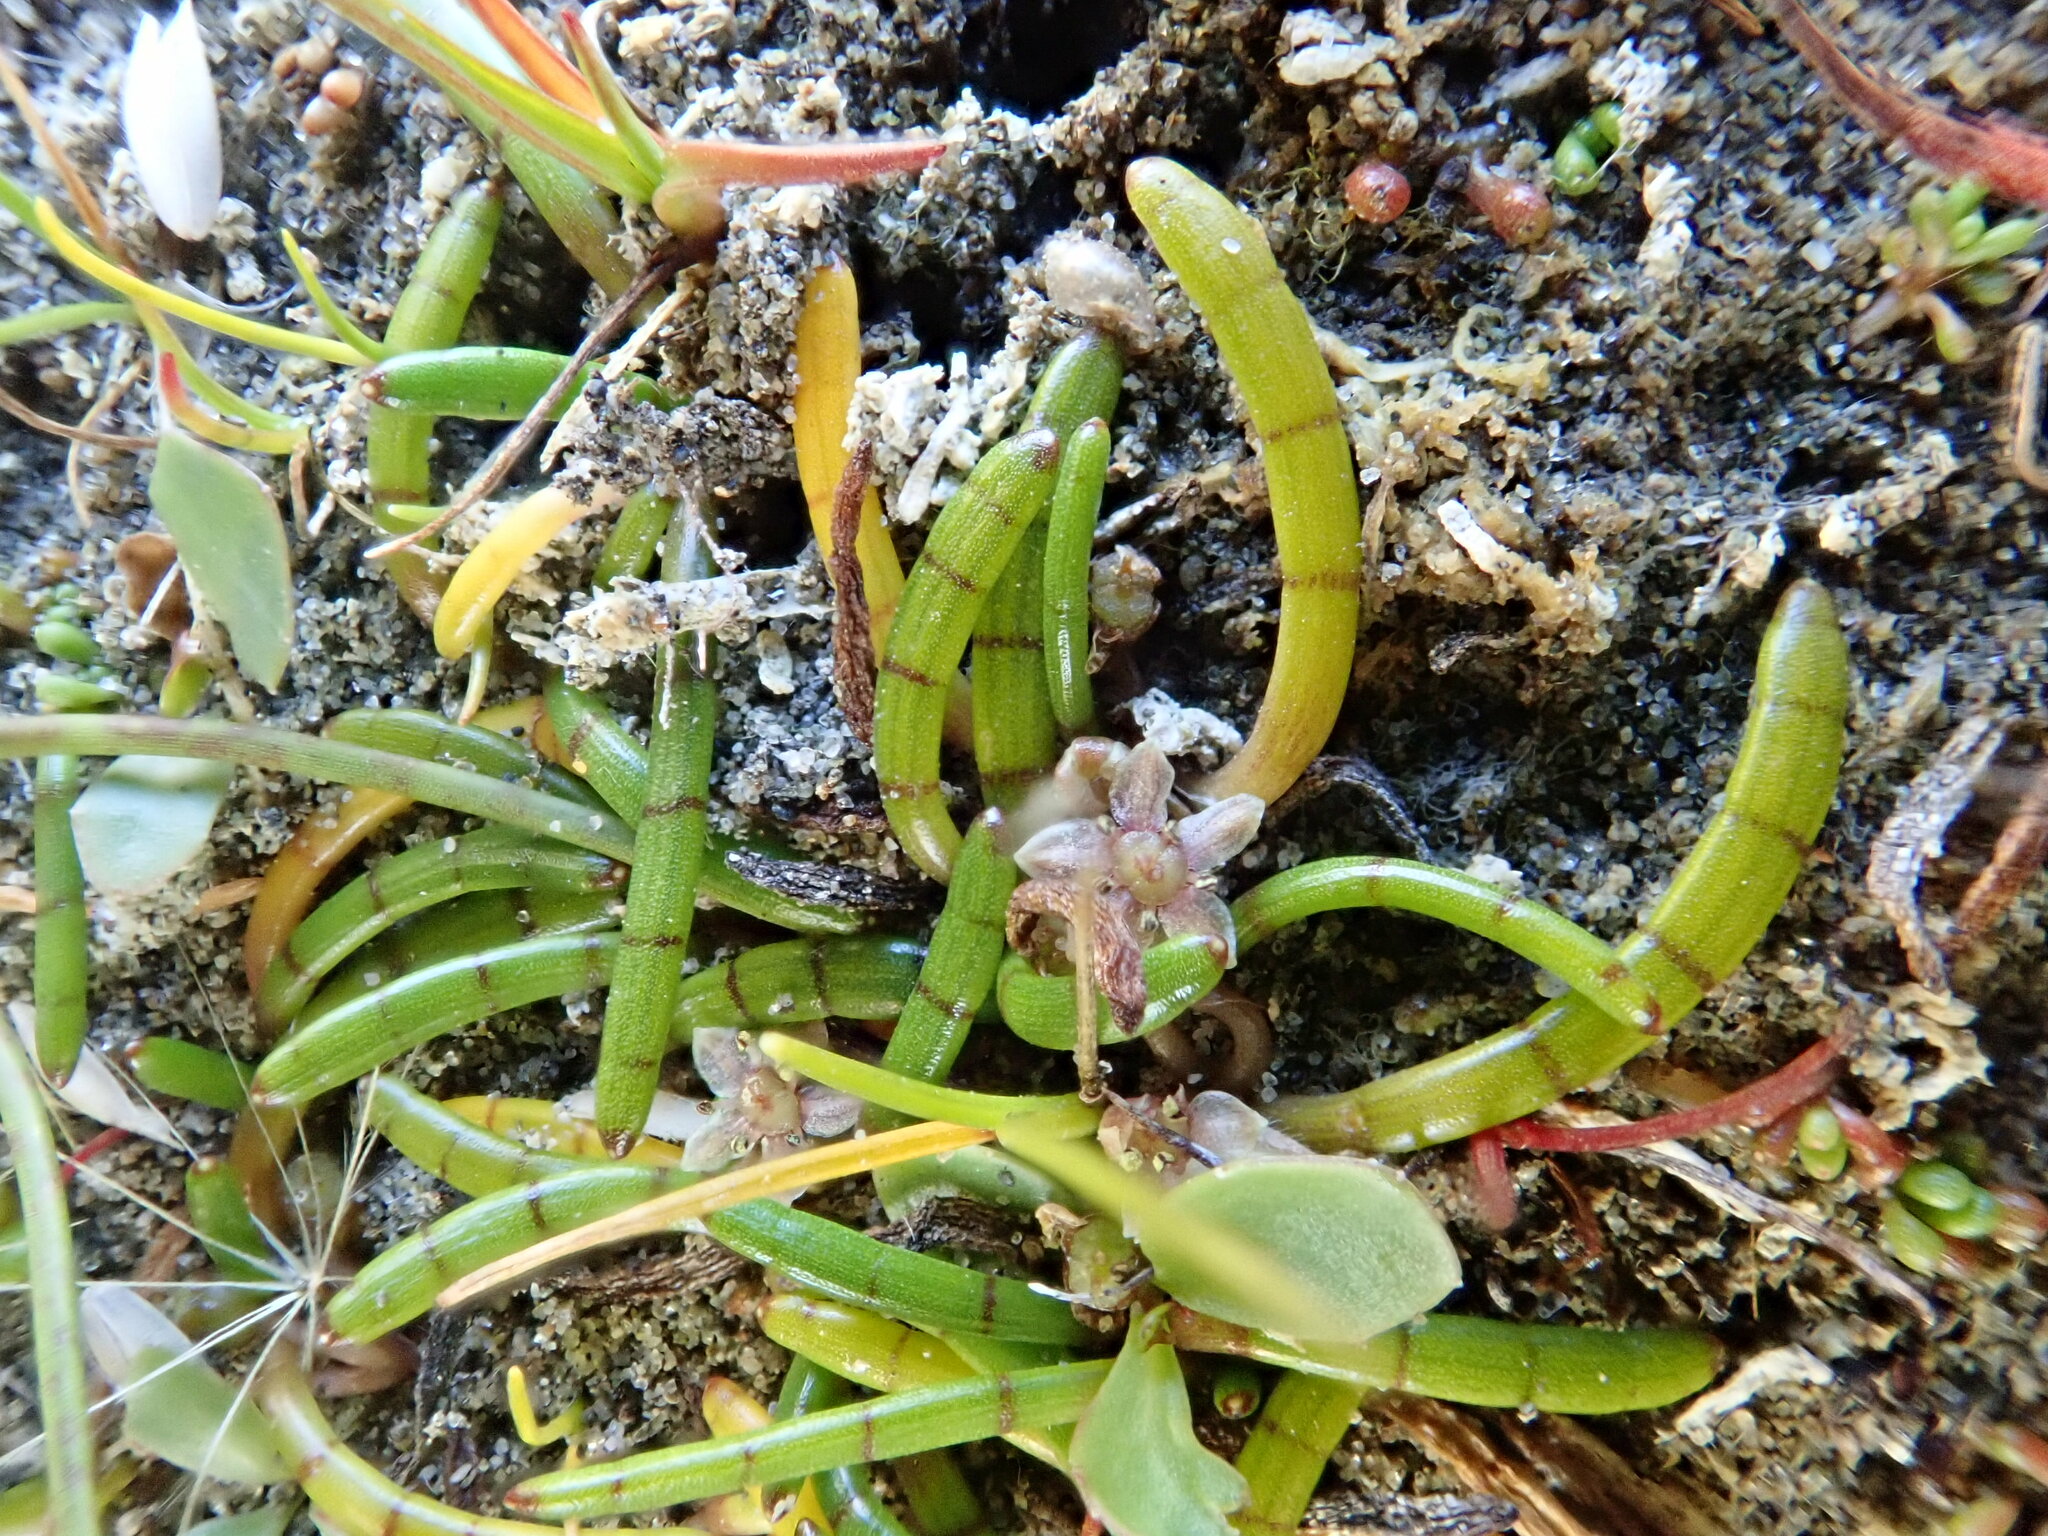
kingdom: Plantae
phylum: Tracheophyta
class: Magnoliopsida
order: Apiales
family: Apiaceae
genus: Lilaeopsis
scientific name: Lilaeopsis novae-zelandiae
